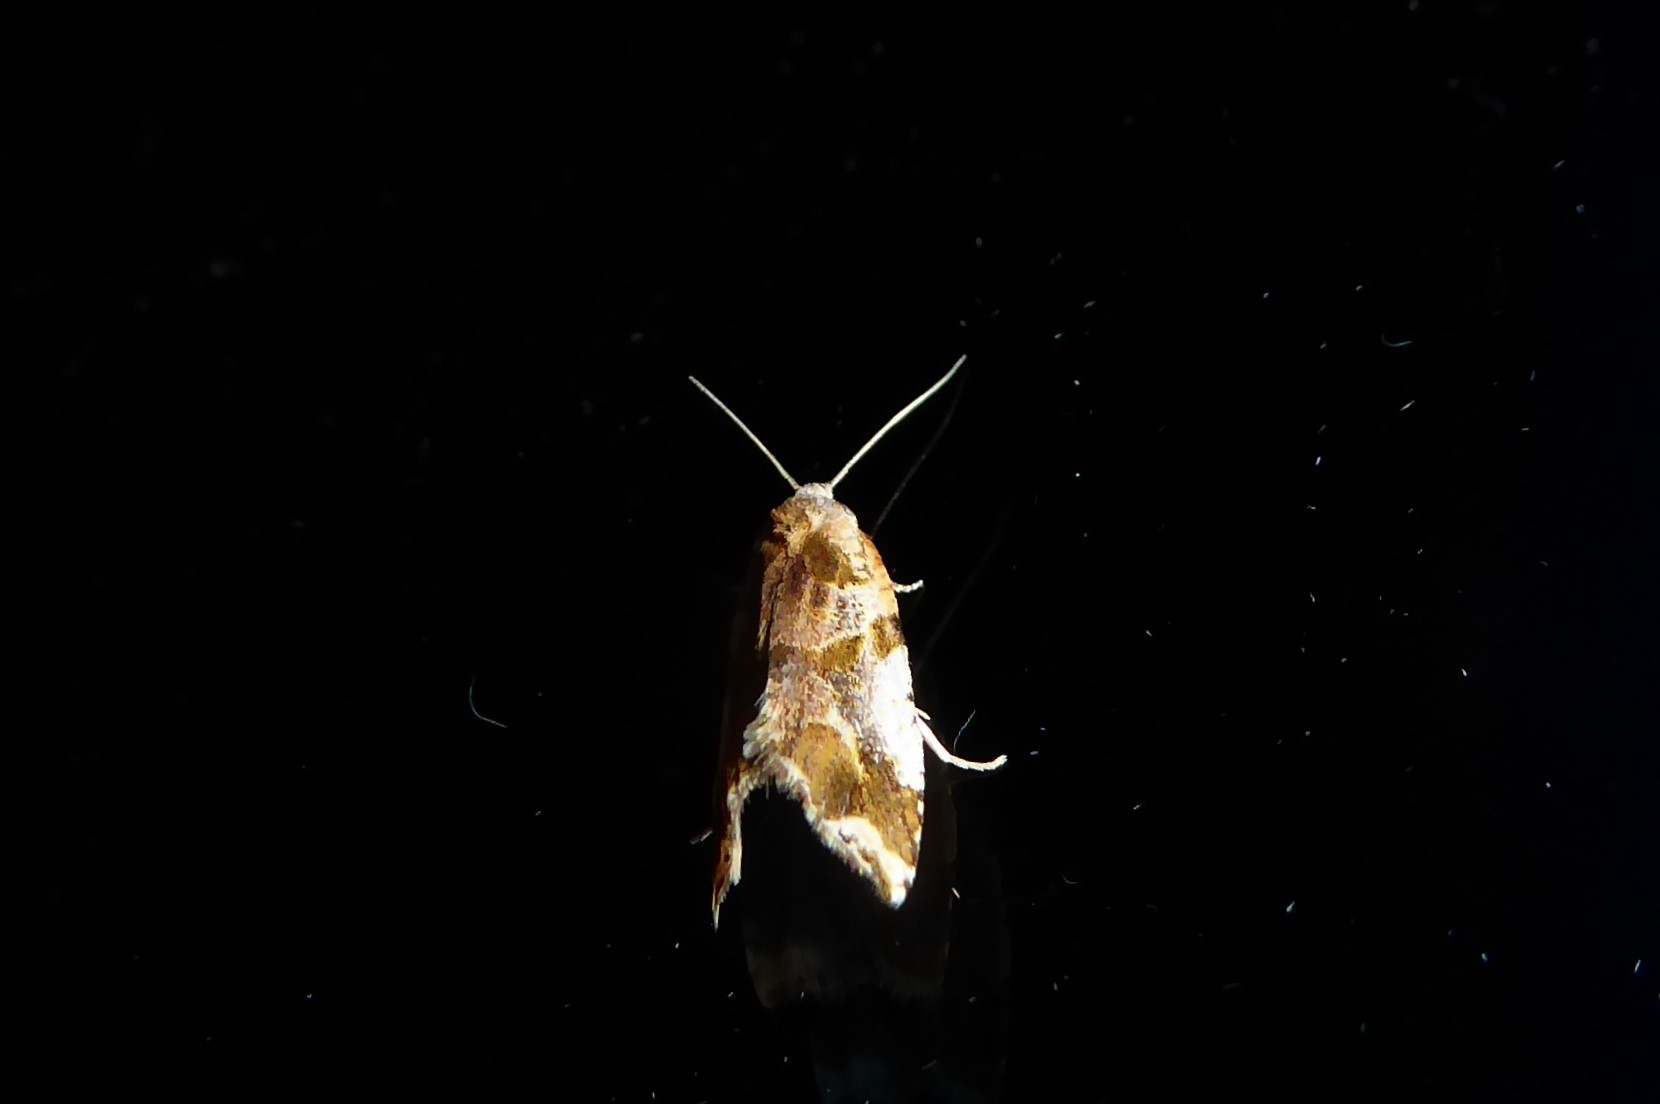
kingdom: Animalia
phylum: Arthropoda
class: Insecta
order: Lepidoptera
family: Tortricidae
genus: Pyrgotis
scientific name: Pyrgotis plagiatana
